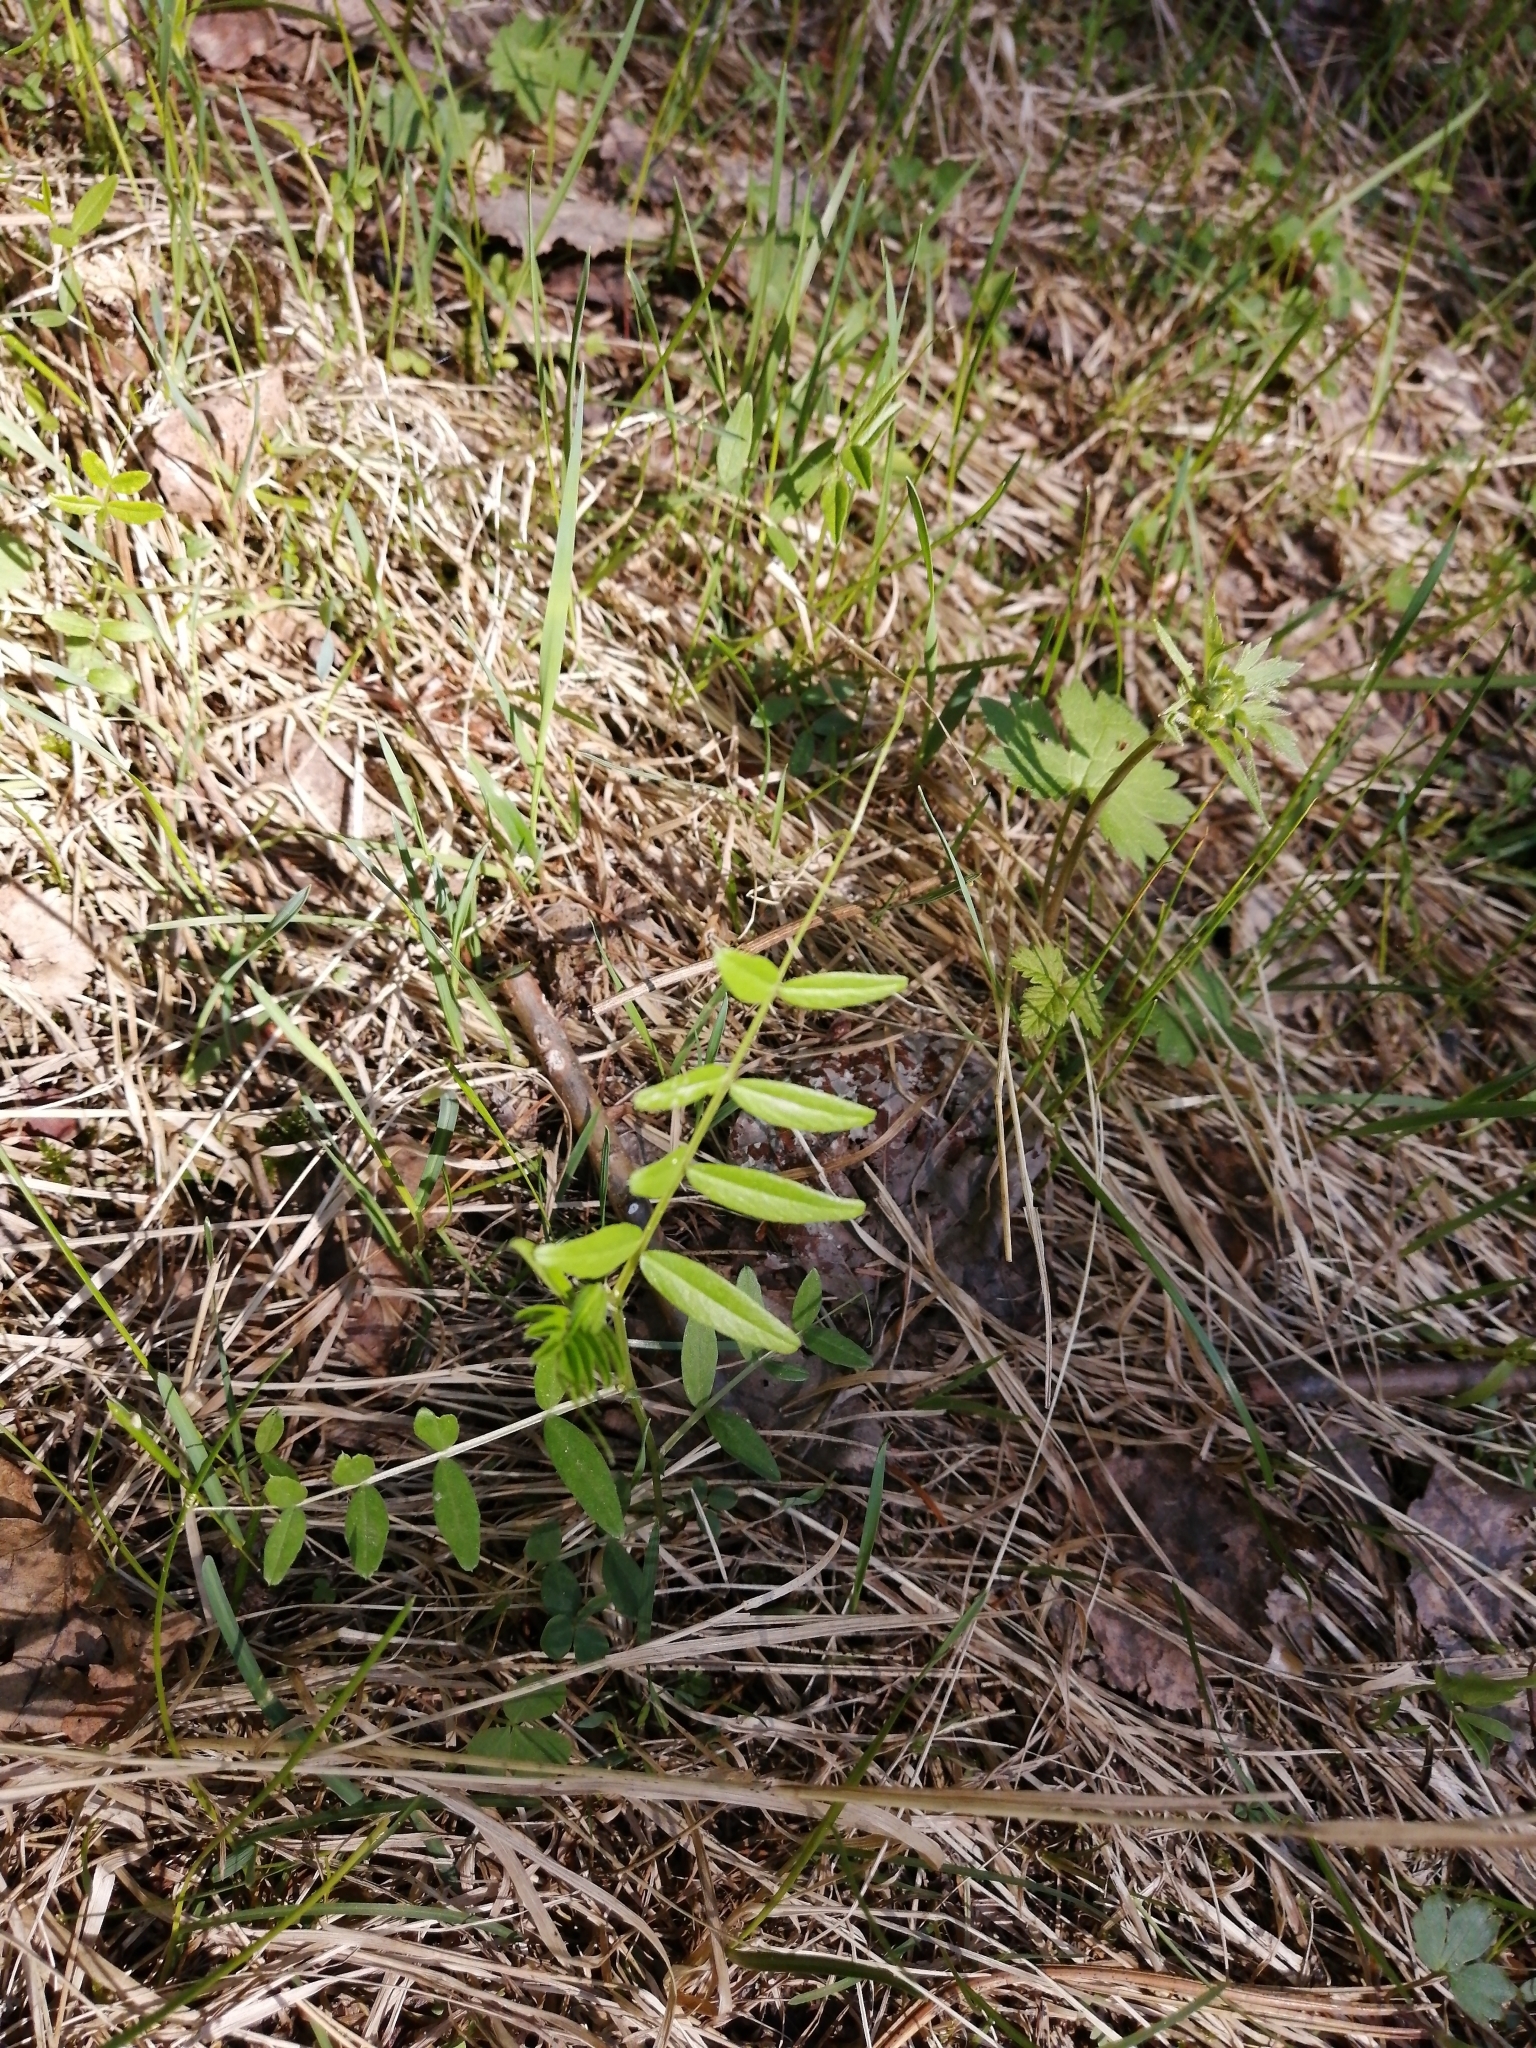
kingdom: Plantae
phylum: Tracheophyta
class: Magnoliopsida
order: Fabales
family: Fabaceae
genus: Vicia
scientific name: Vicia sepium
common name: Bush vetch
